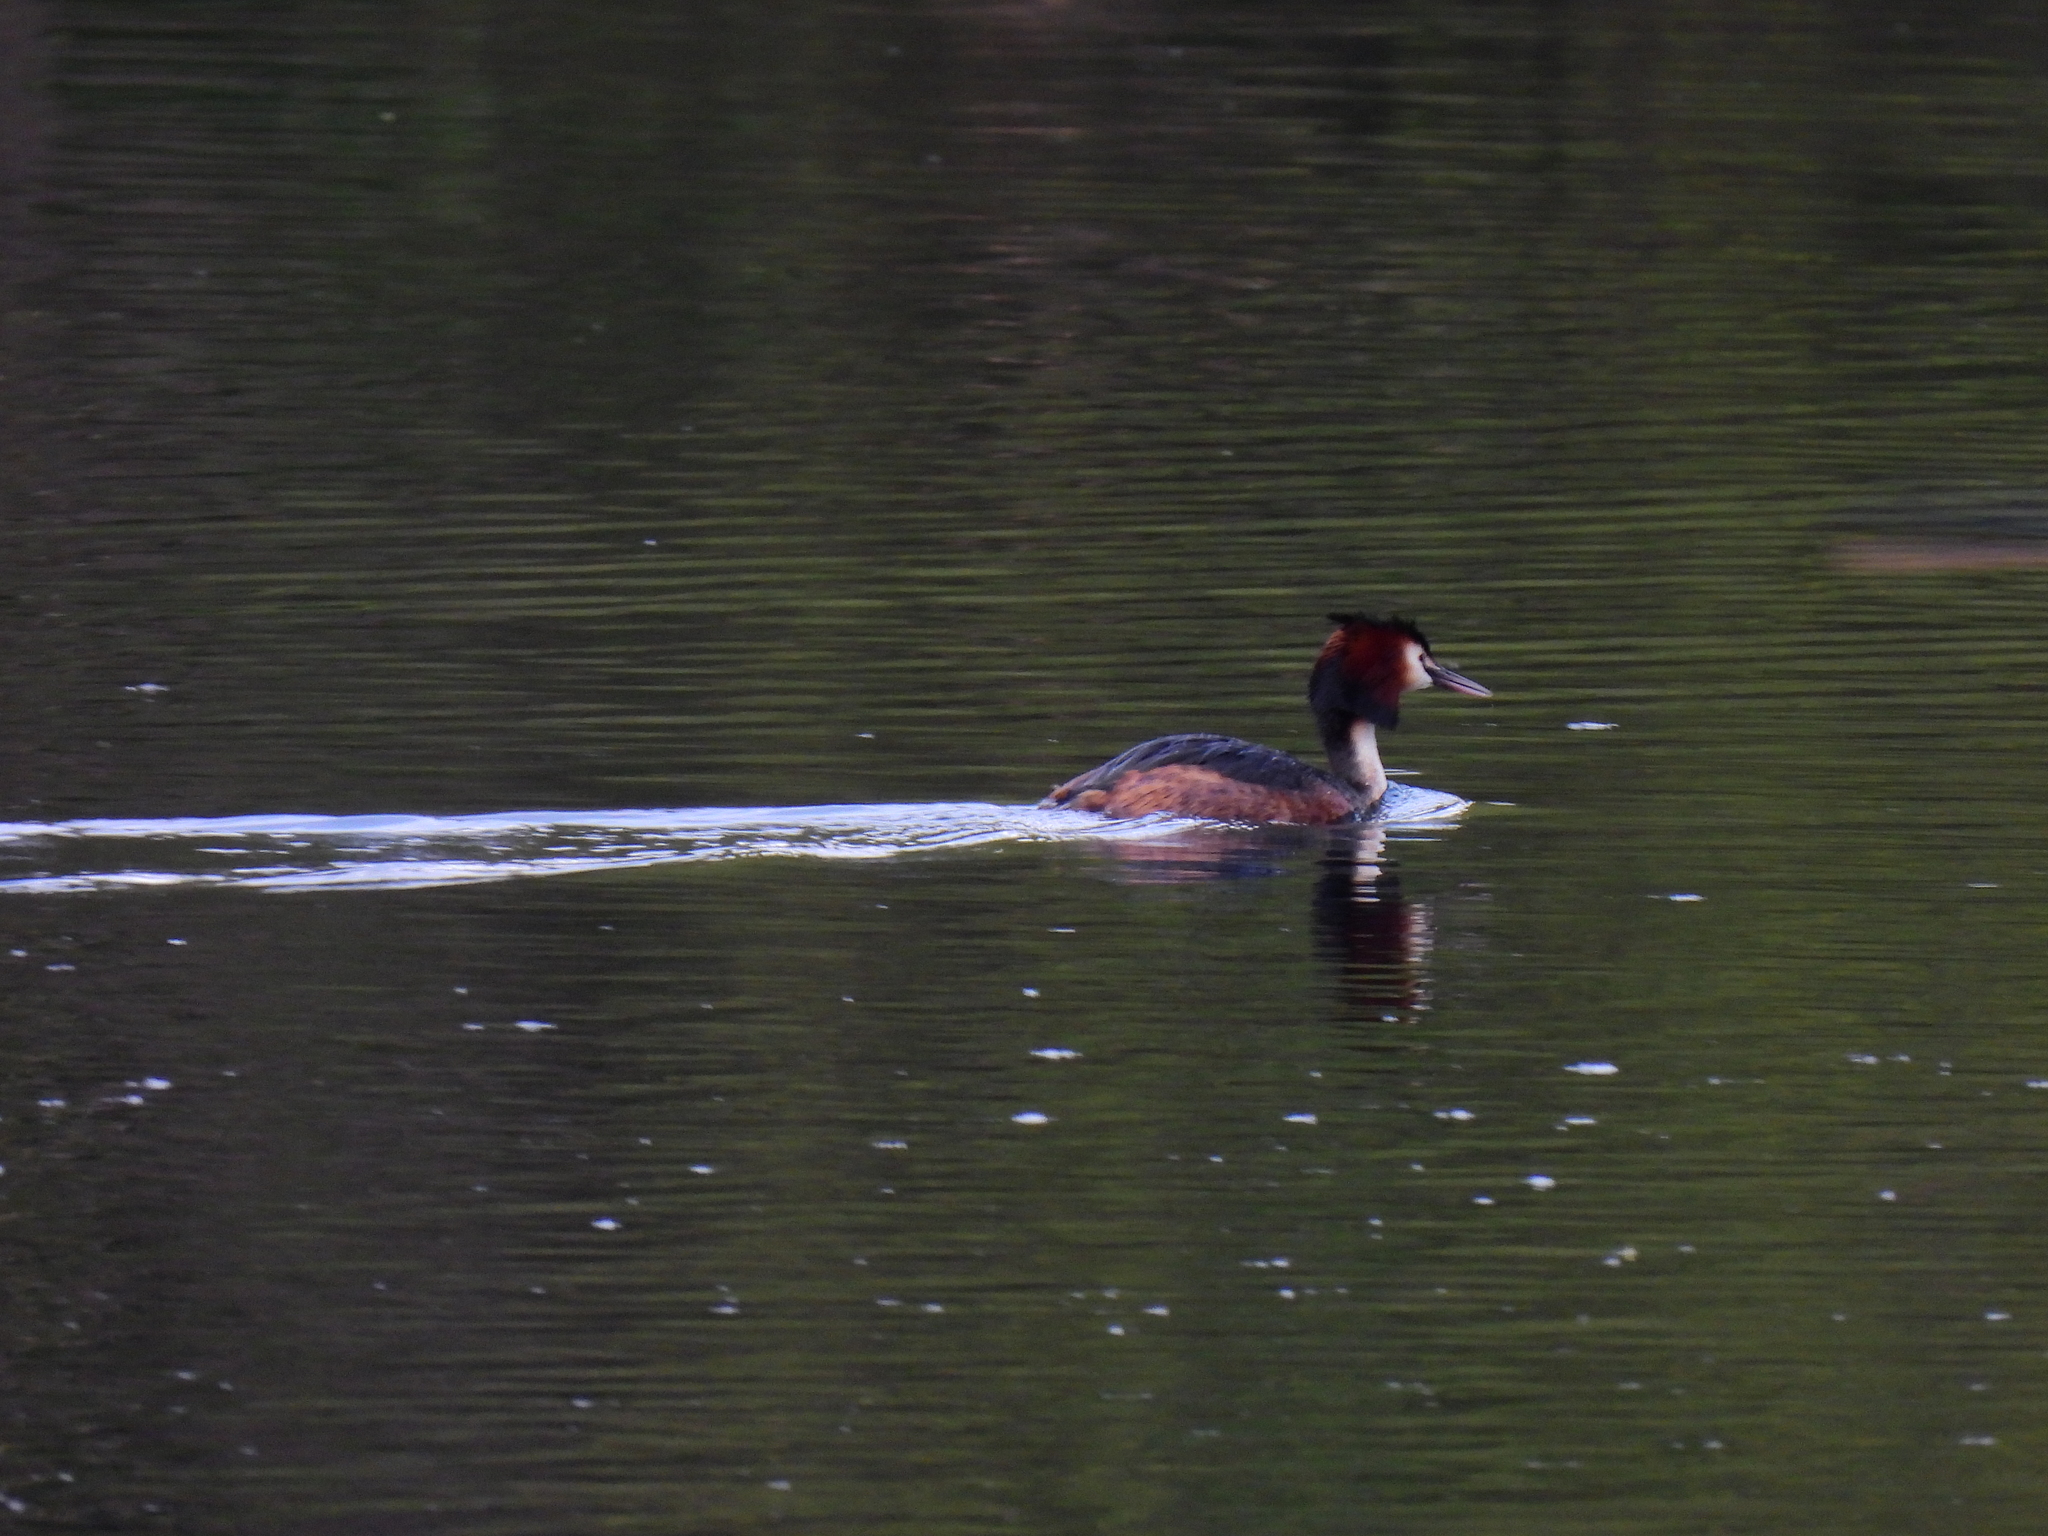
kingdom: Animalia
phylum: Chordata
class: Aves
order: Podicipediformes
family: Podicipedidae
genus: Podiceps
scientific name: Podiceps cristatus
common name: Great crested grebe
